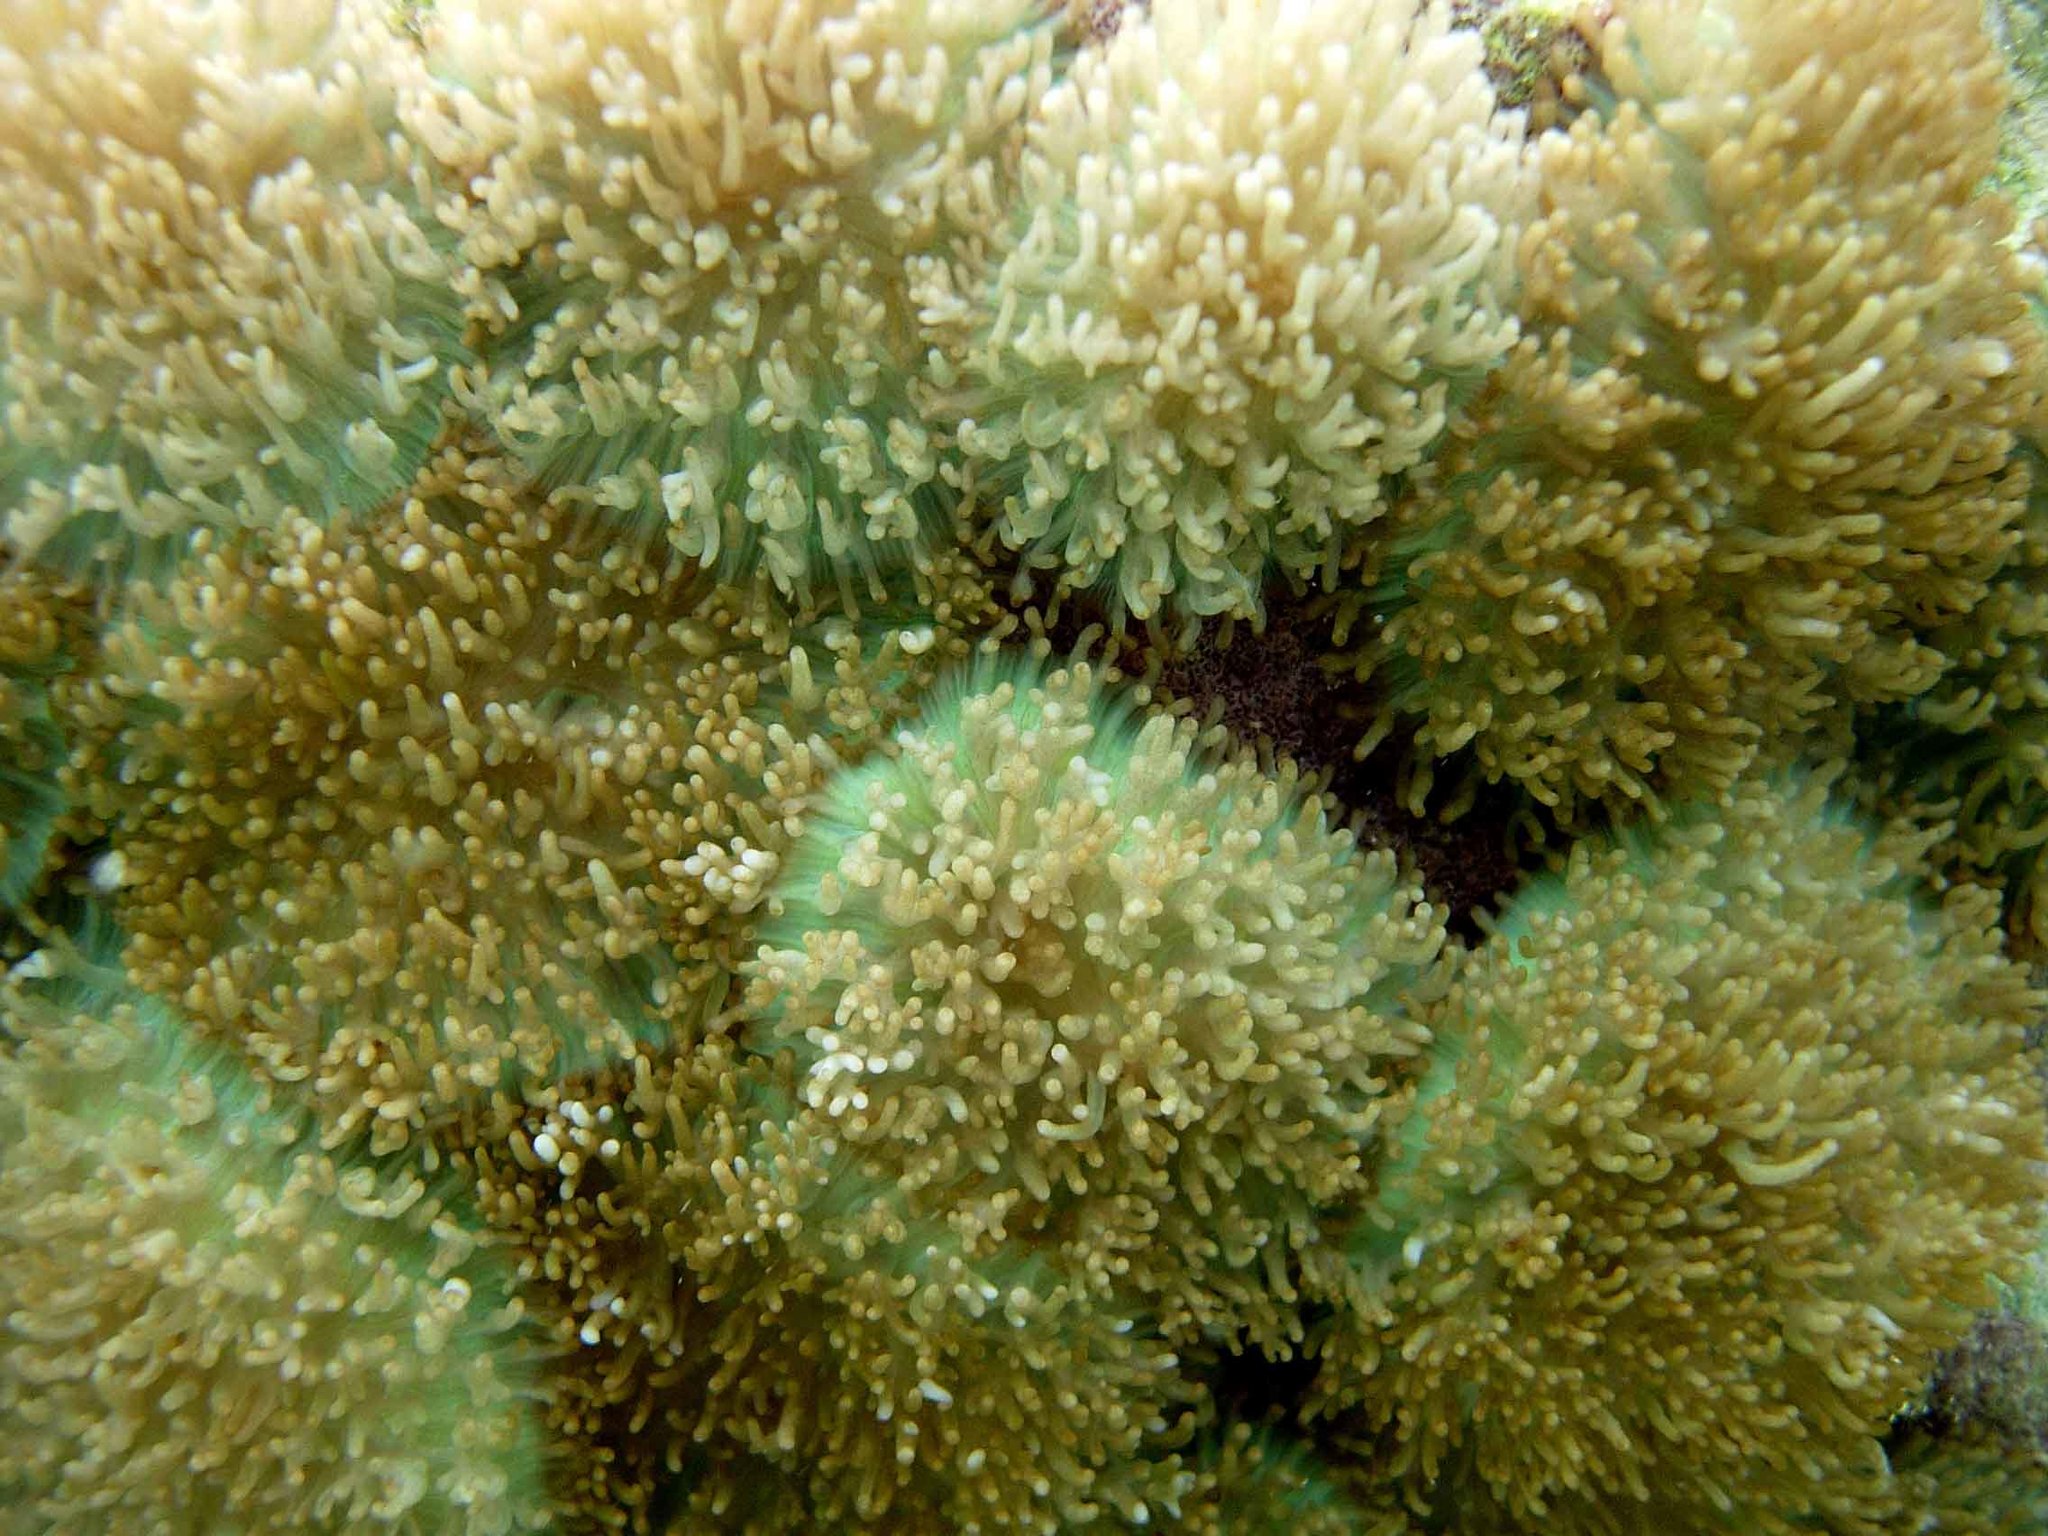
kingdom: Animalia
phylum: Cnidaria
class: Anthozoa
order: Corallimorpharia
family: Discosomidae
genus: Rhodactis
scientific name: Rhodactis rhodostoma
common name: Red-mouth mushroom anemone
